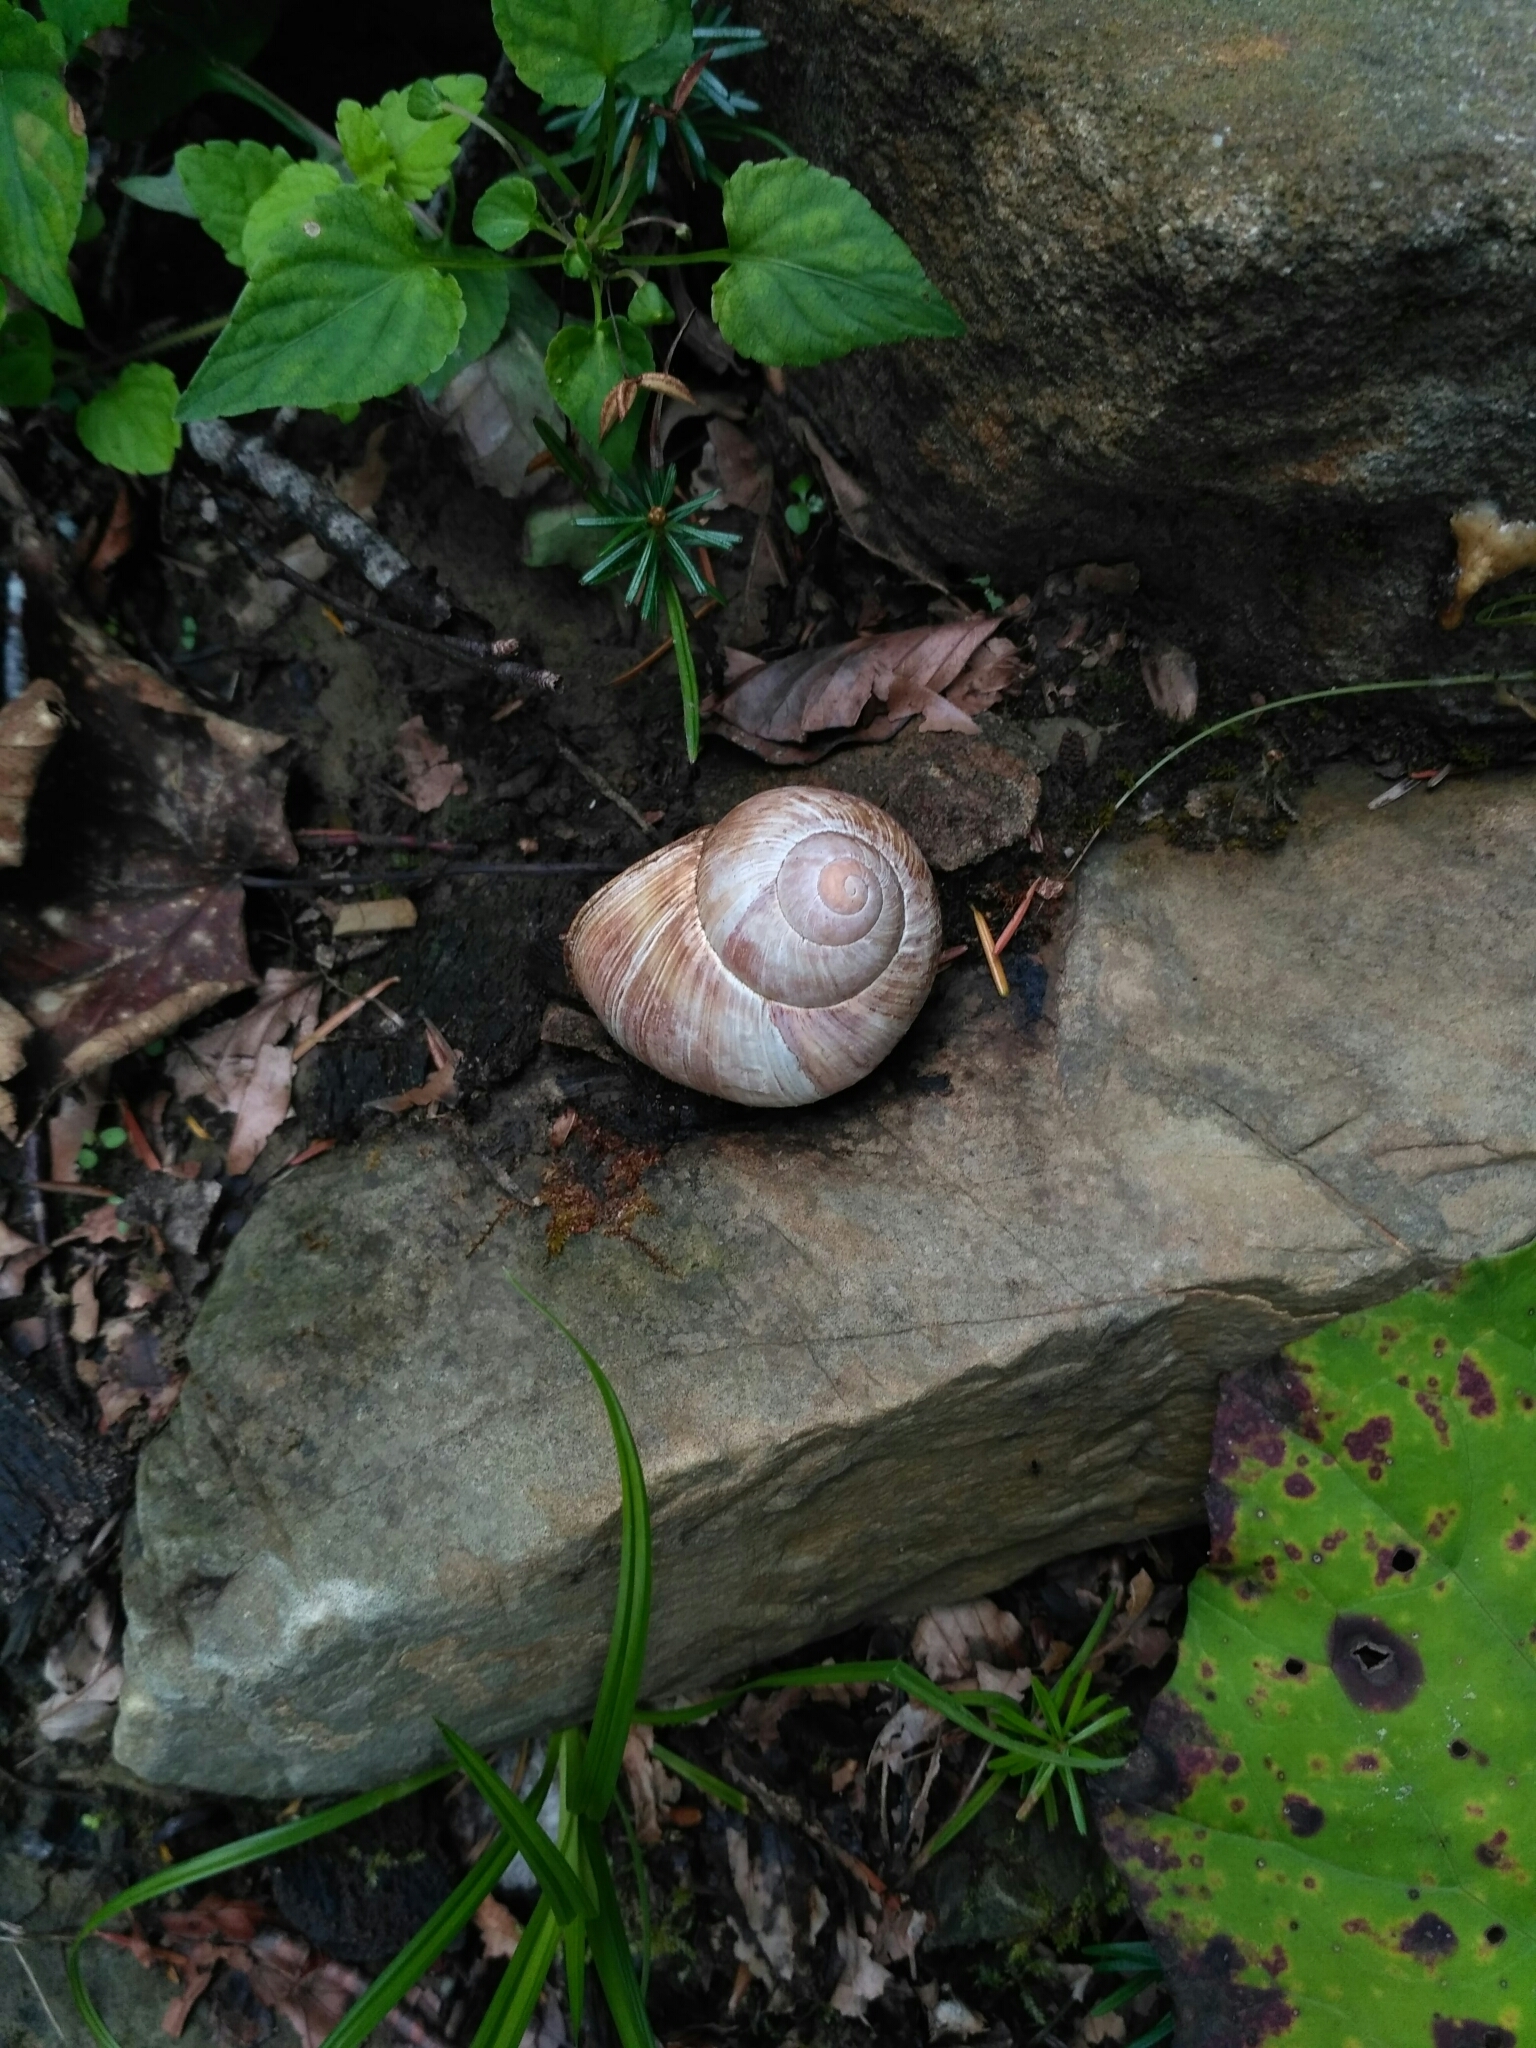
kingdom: Animalia
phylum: Mollusca
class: Gastropoda
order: Stylommatophora
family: Helicidae
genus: Helix
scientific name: Helix pomatia
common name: Roman snail
